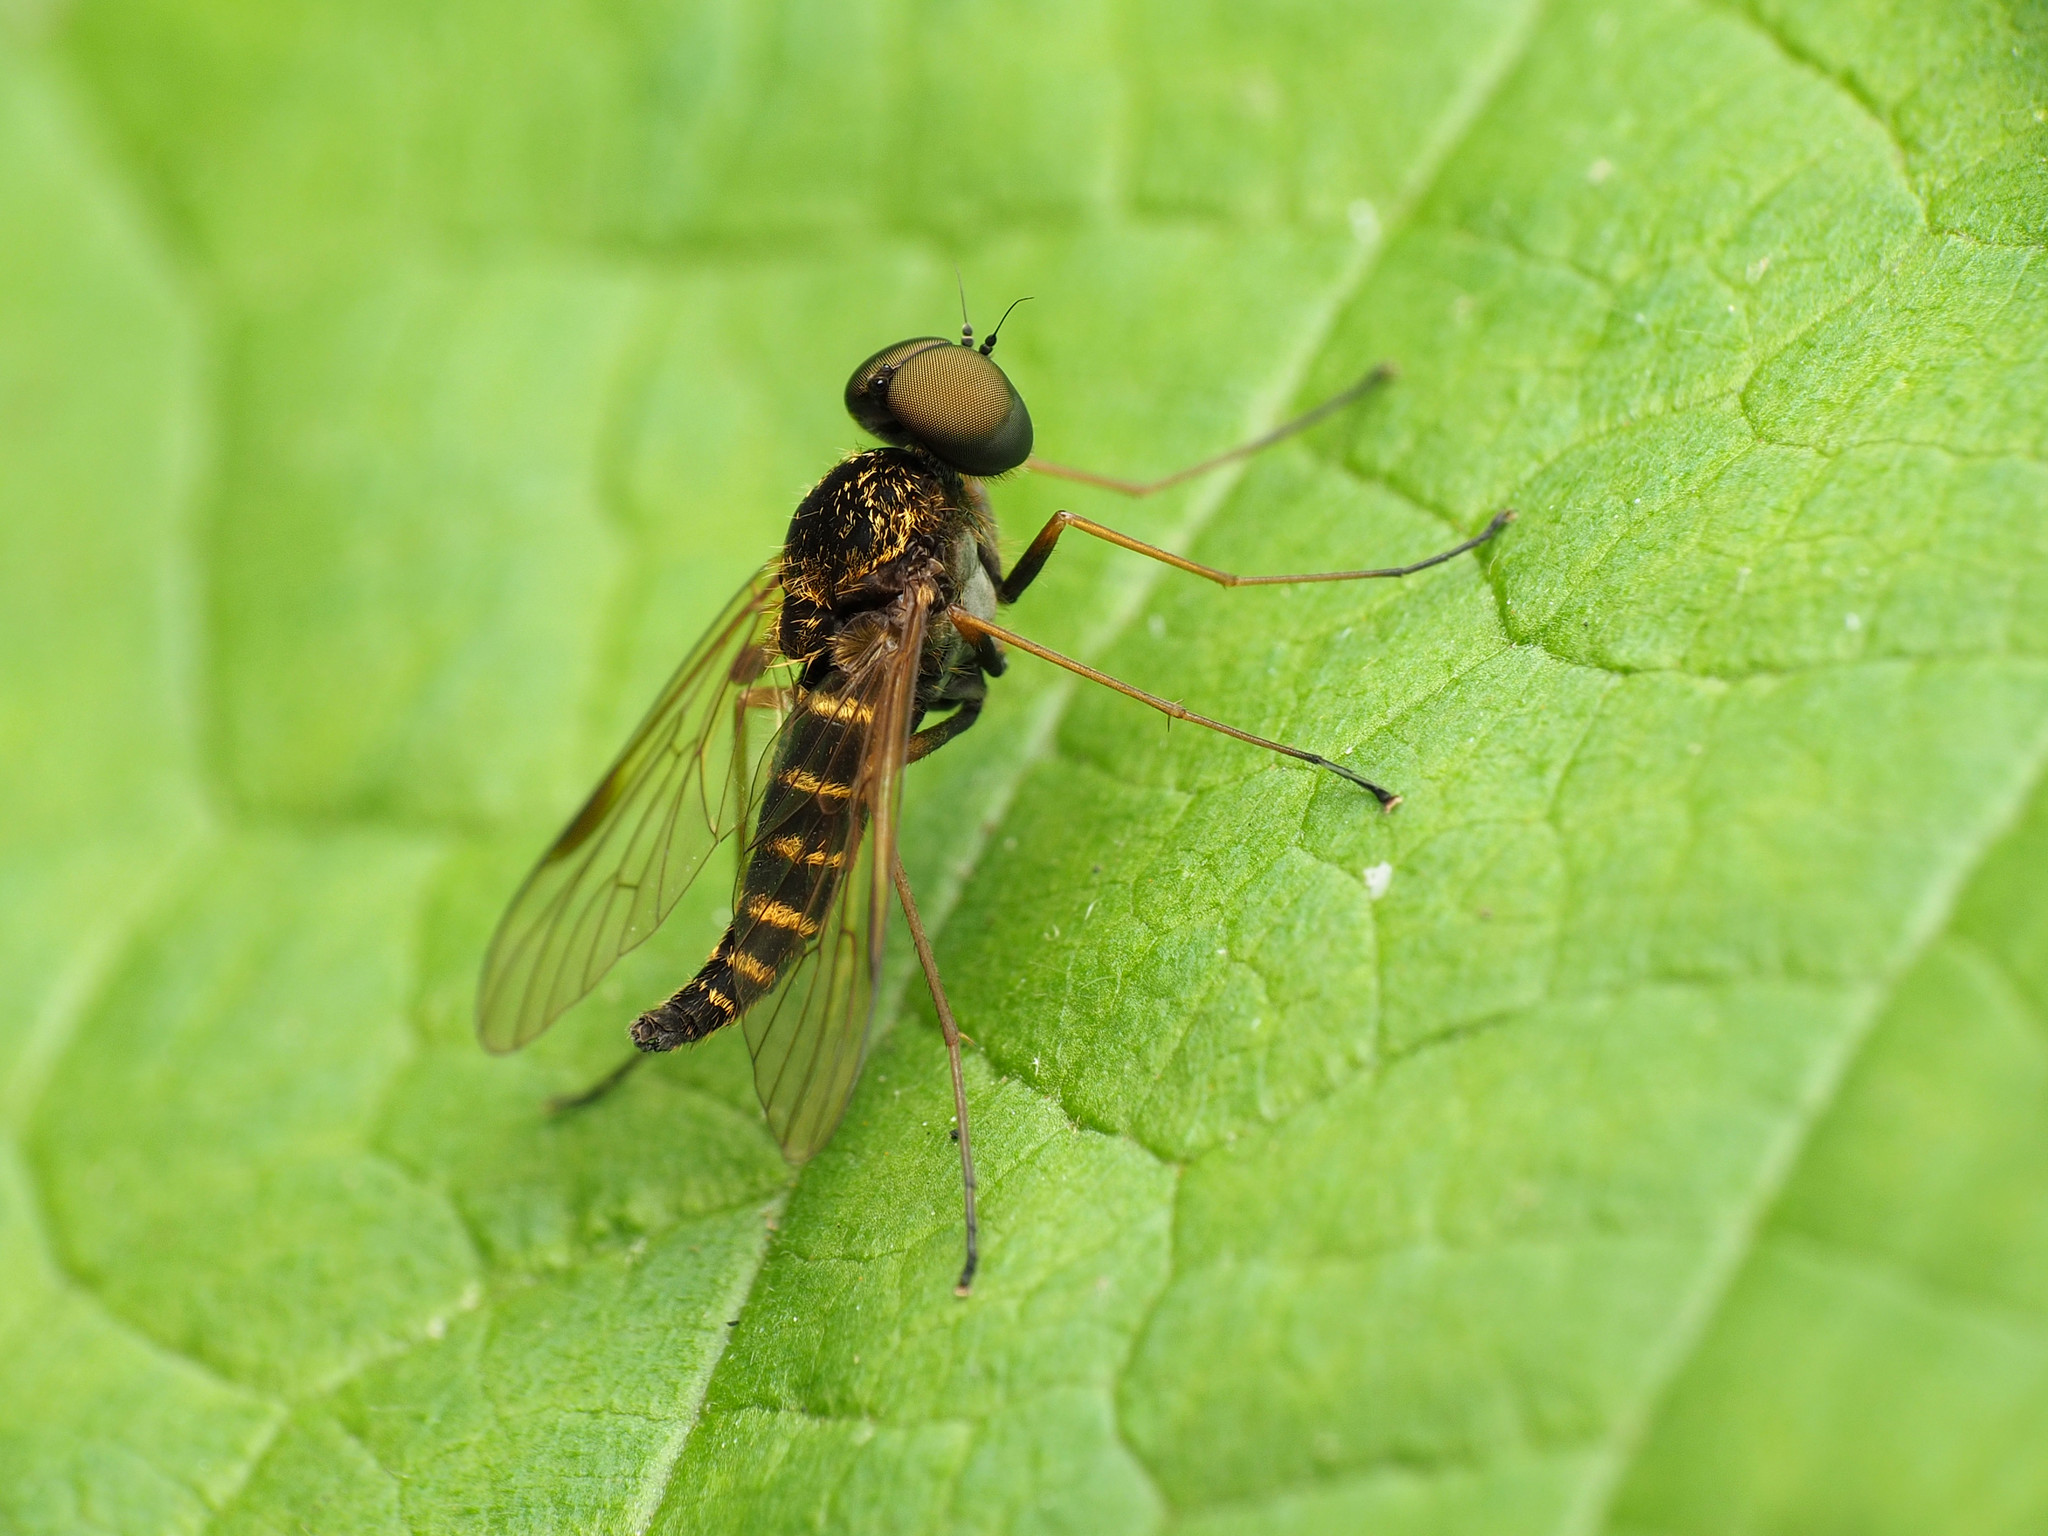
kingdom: Animalia
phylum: Arthropoda
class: Insecta
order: Diptera
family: Rhagionidae
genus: Chrysopilus
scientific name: Chrysopilus fasciatus
